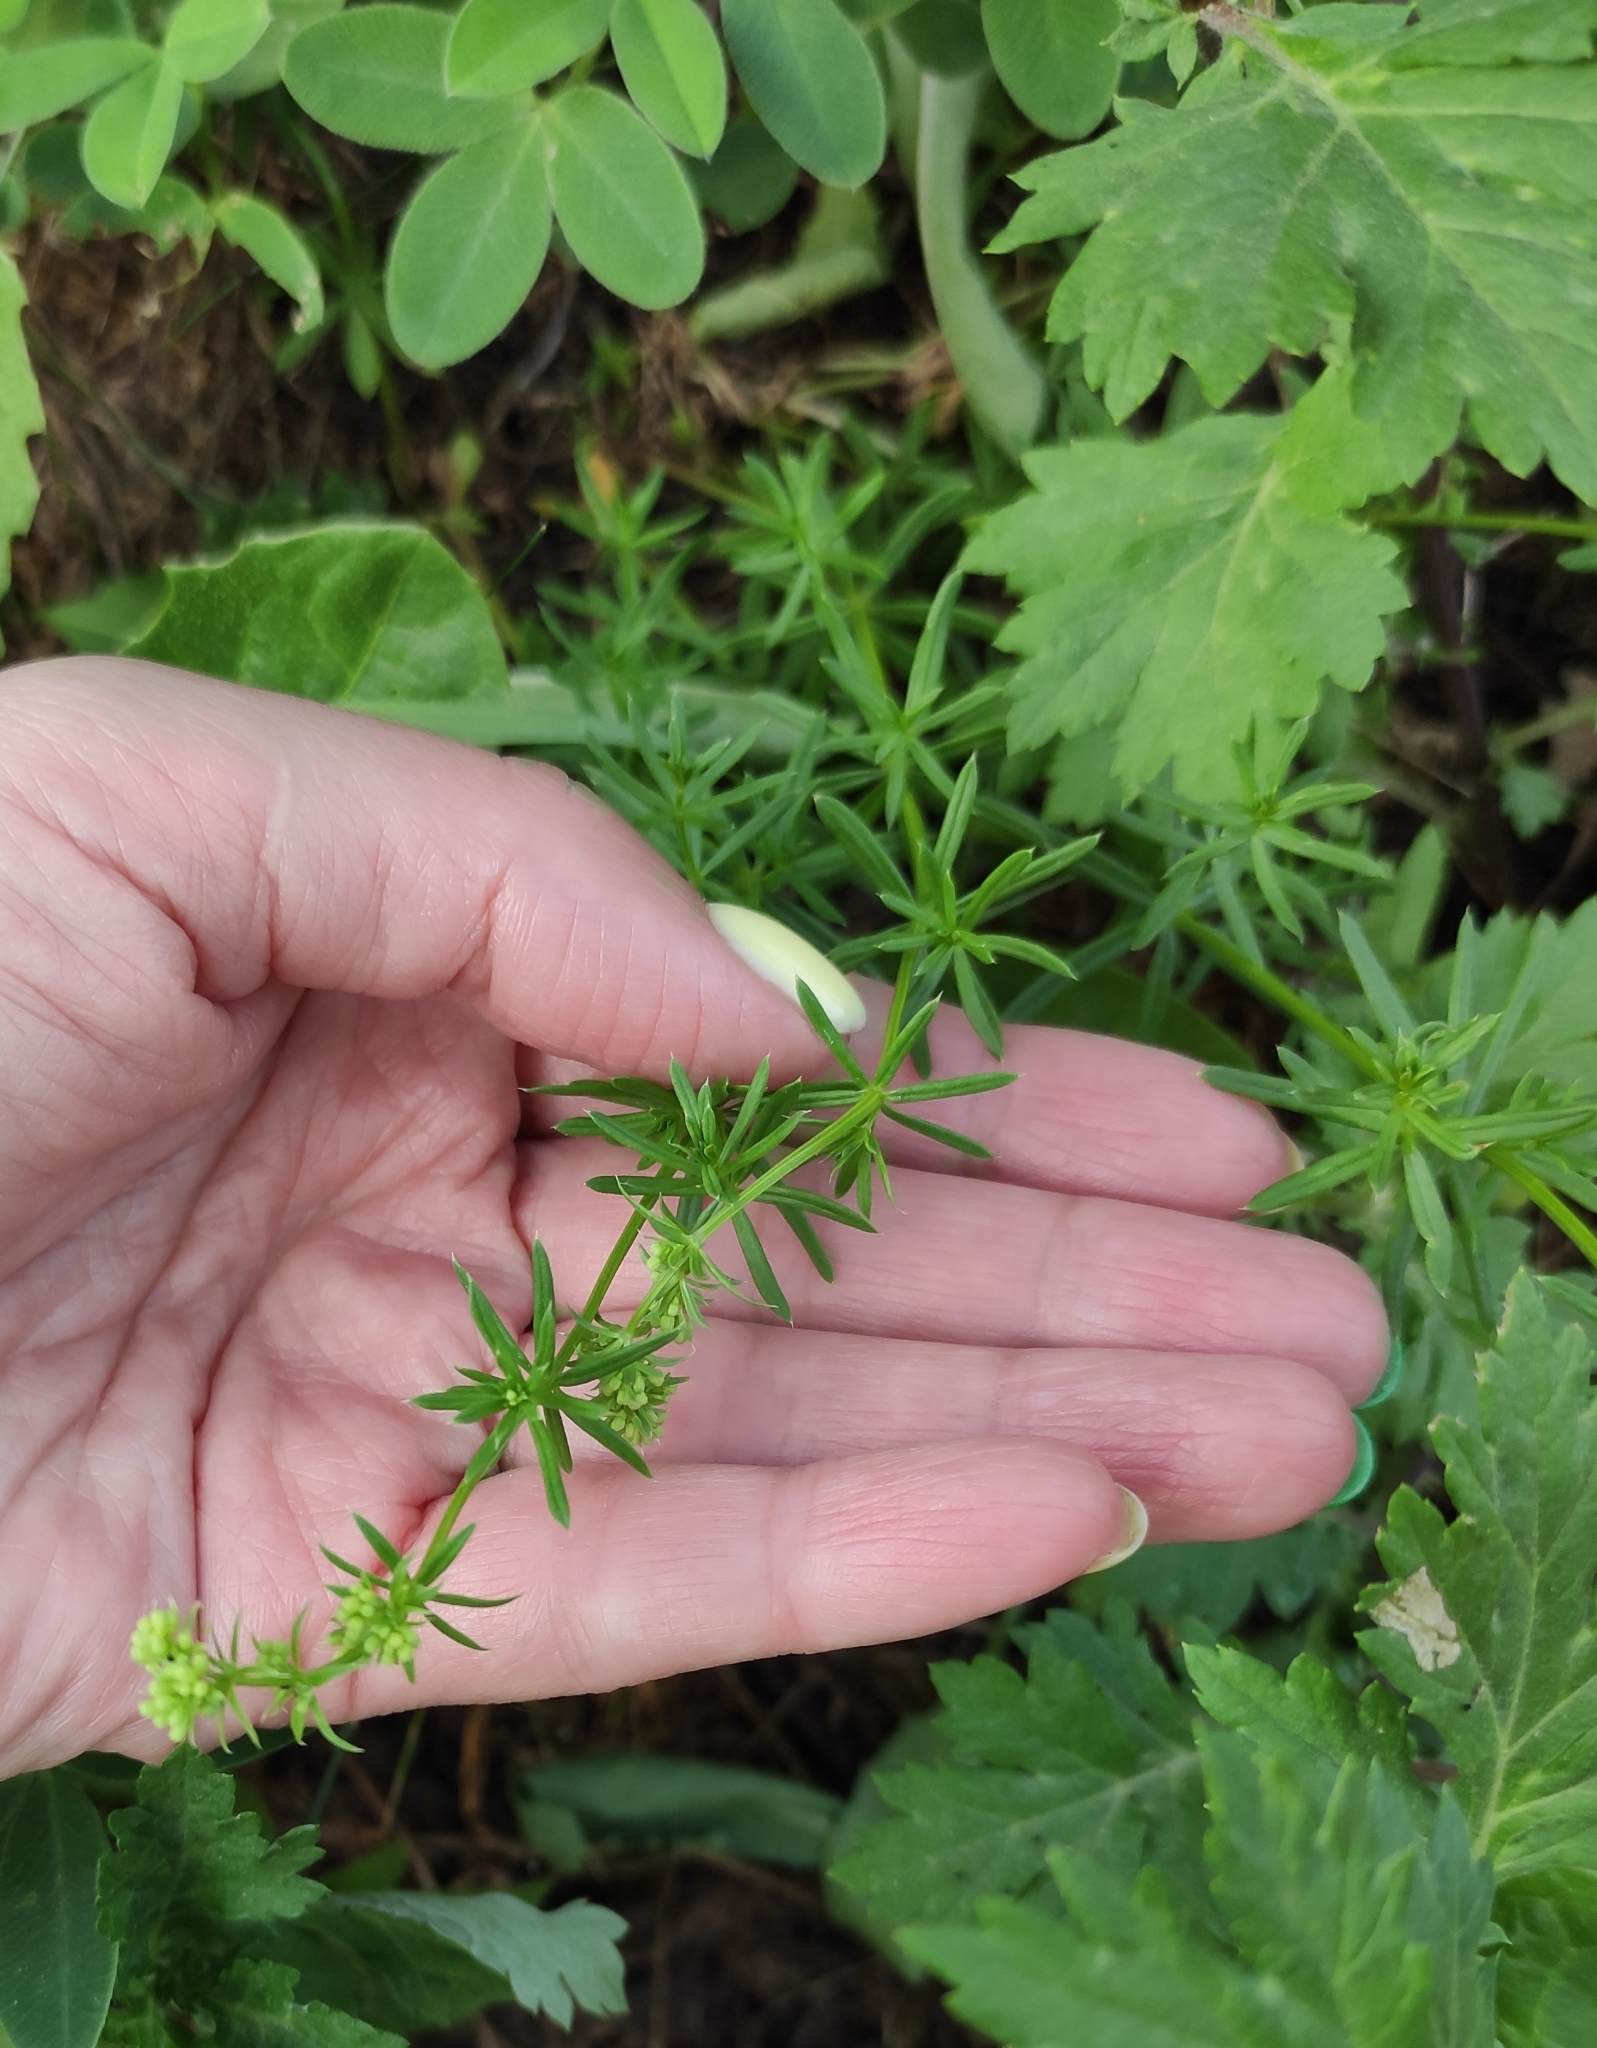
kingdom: Plantae
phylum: Tracheophyta
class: Magnoliopsida
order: Gentianales
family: Rubiaceae
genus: Galium
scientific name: Galium mollugo
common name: Hedge bedstraw
